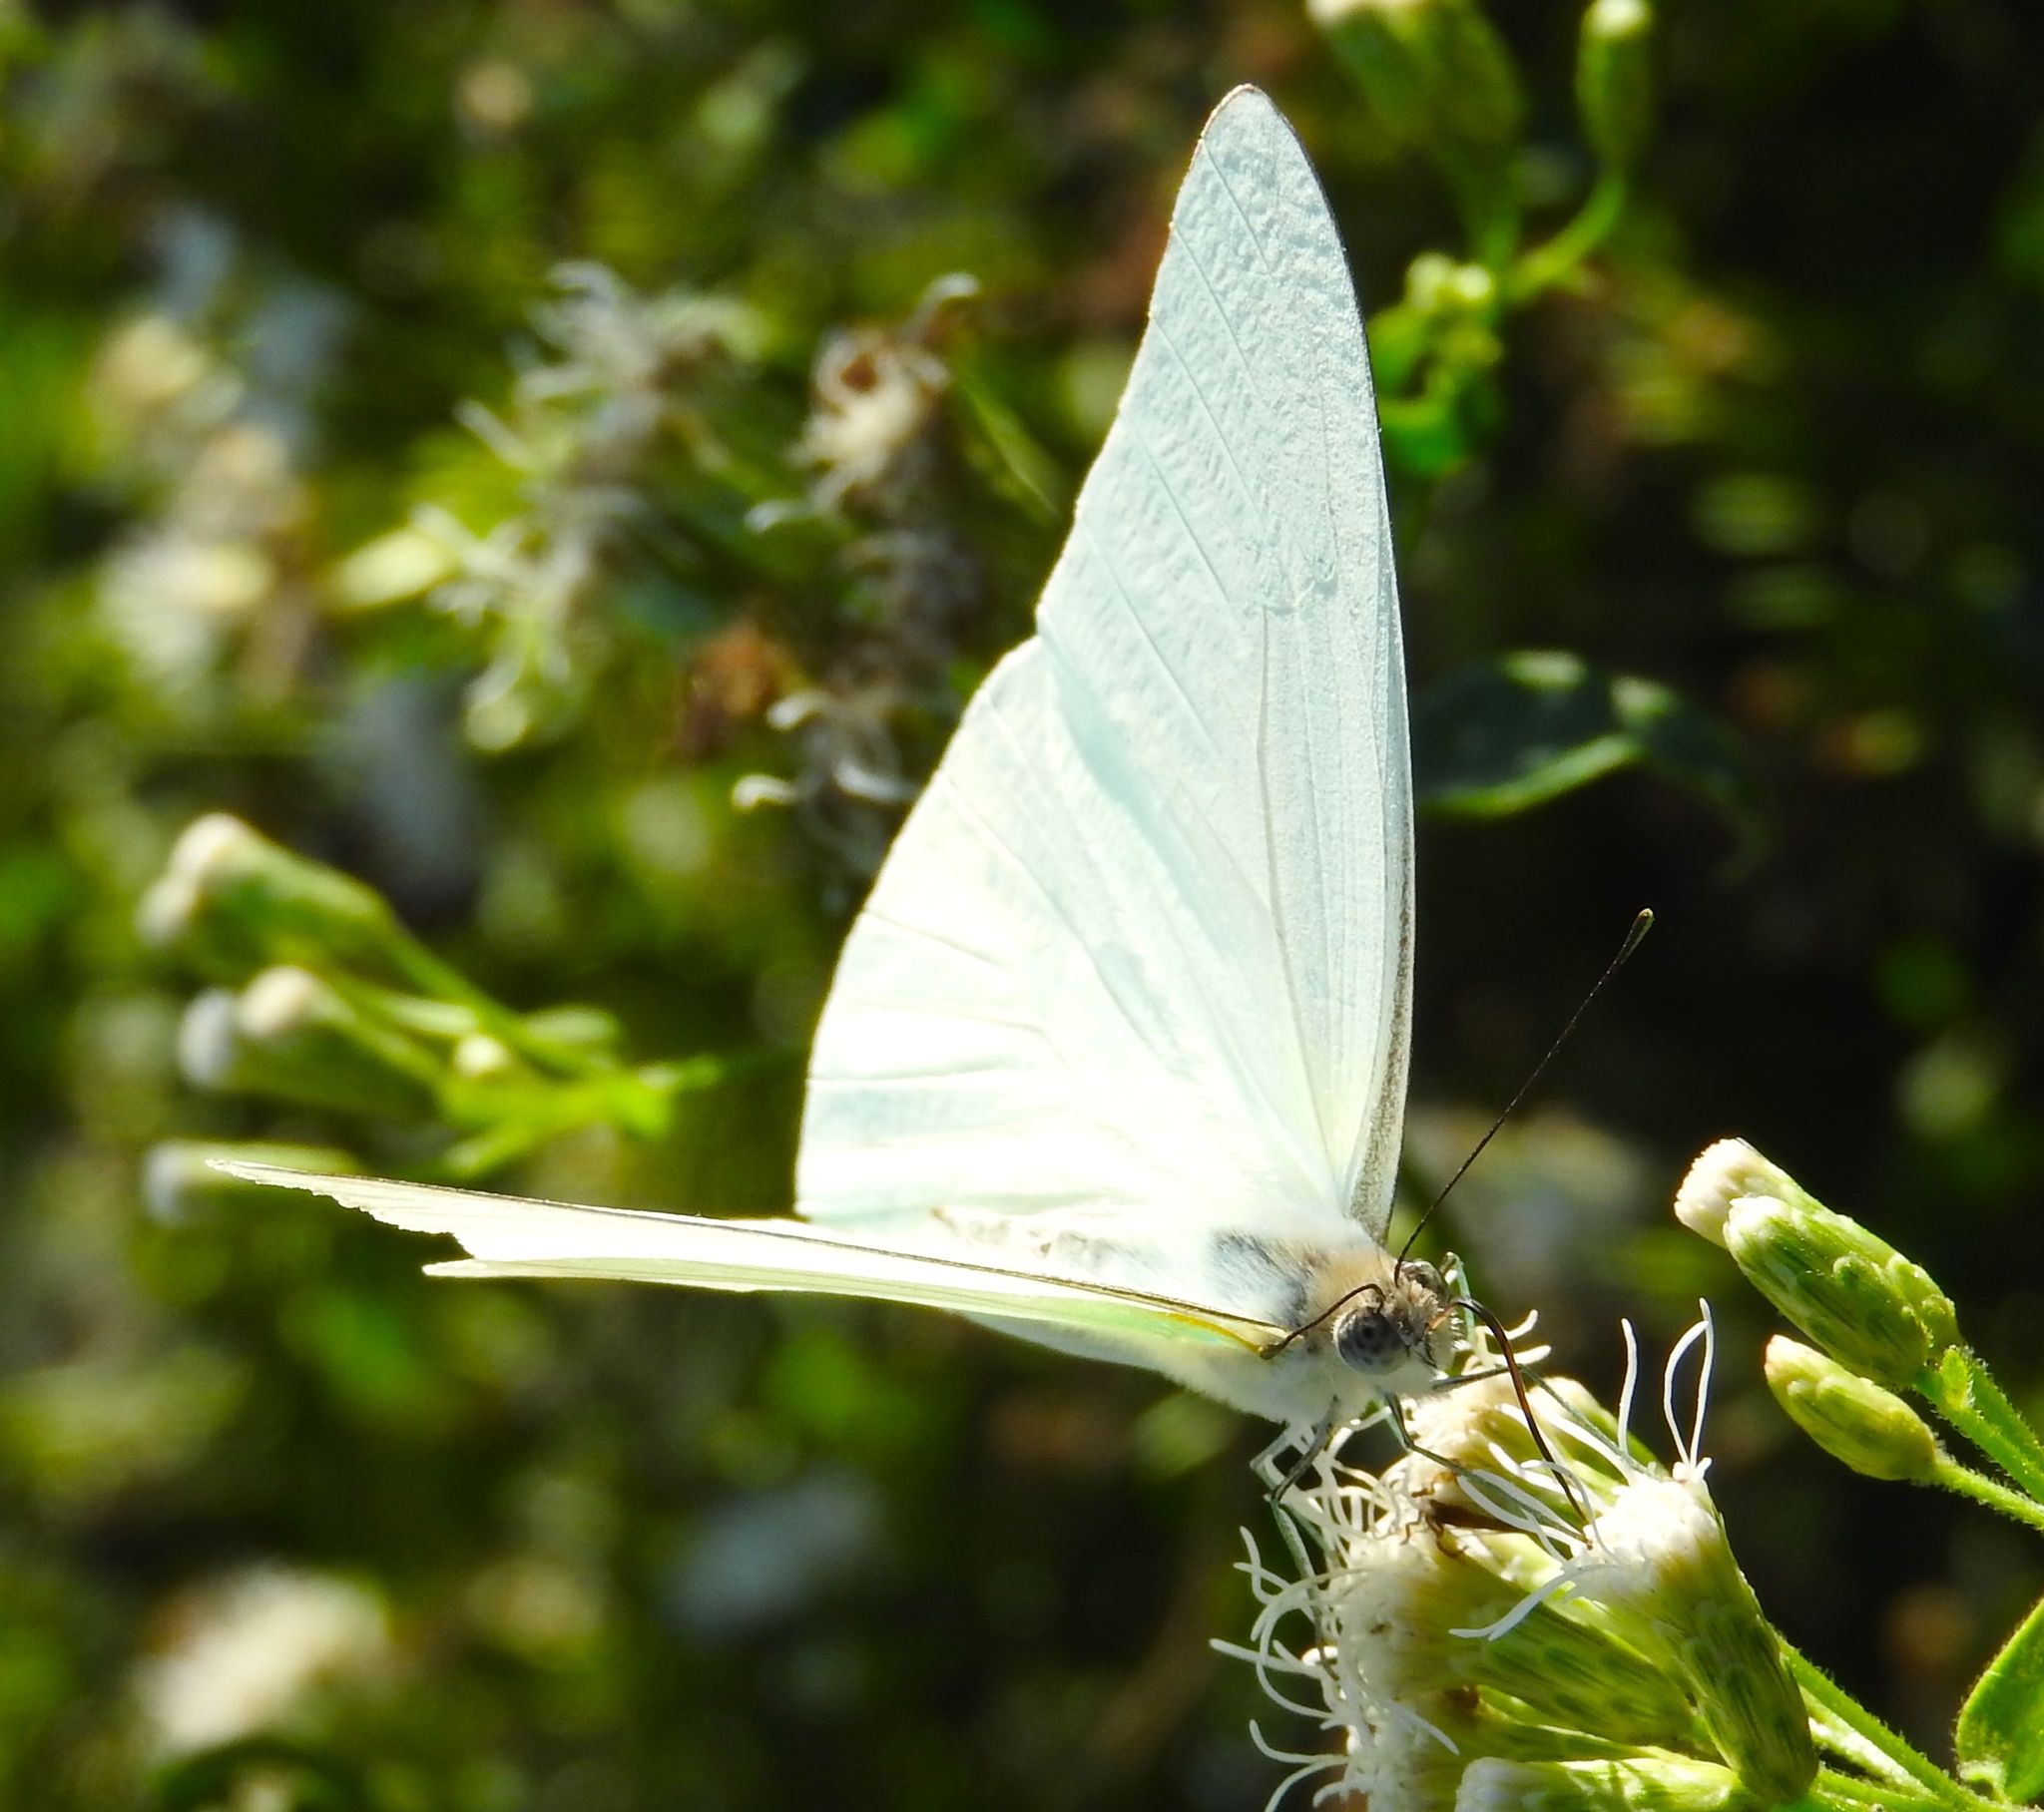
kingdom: Animalia
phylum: Arthropoda
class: Insecta
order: Lepidoptera
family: Pieridae
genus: Glutophrissa
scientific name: Glutophrissa drusilla
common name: Florida white
